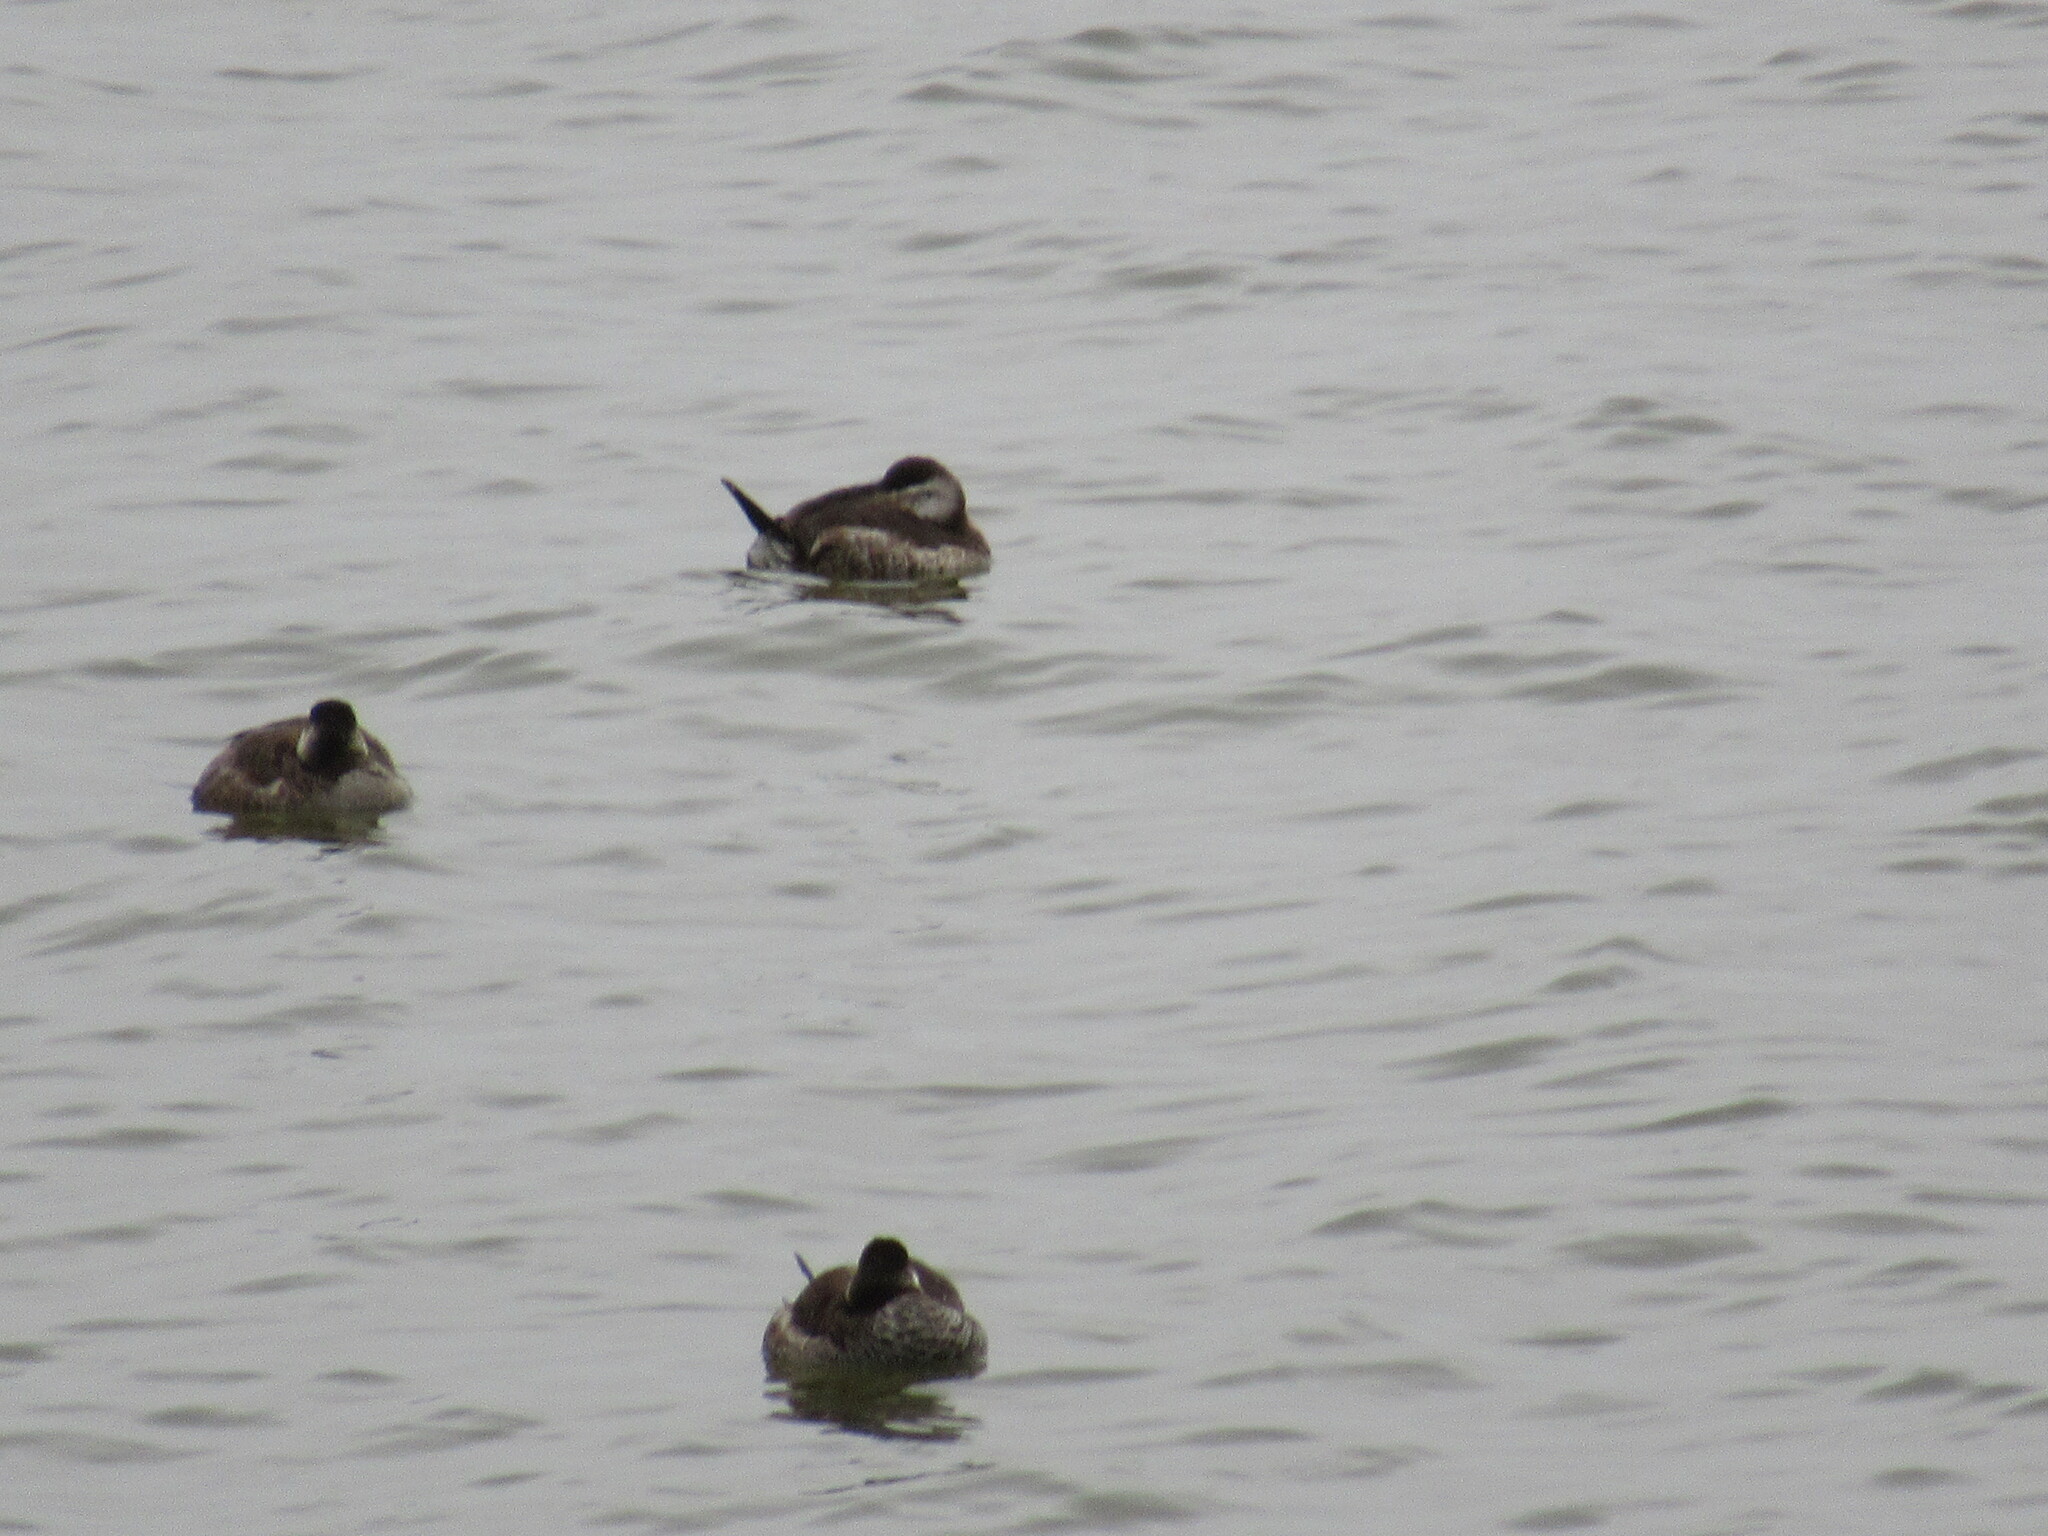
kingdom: Animalia
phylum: Chordata
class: Aves
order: Anseriformes
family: Anatidae
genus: Oxyura
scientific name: Oxyura jamaicensis
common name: Ruddy duck
